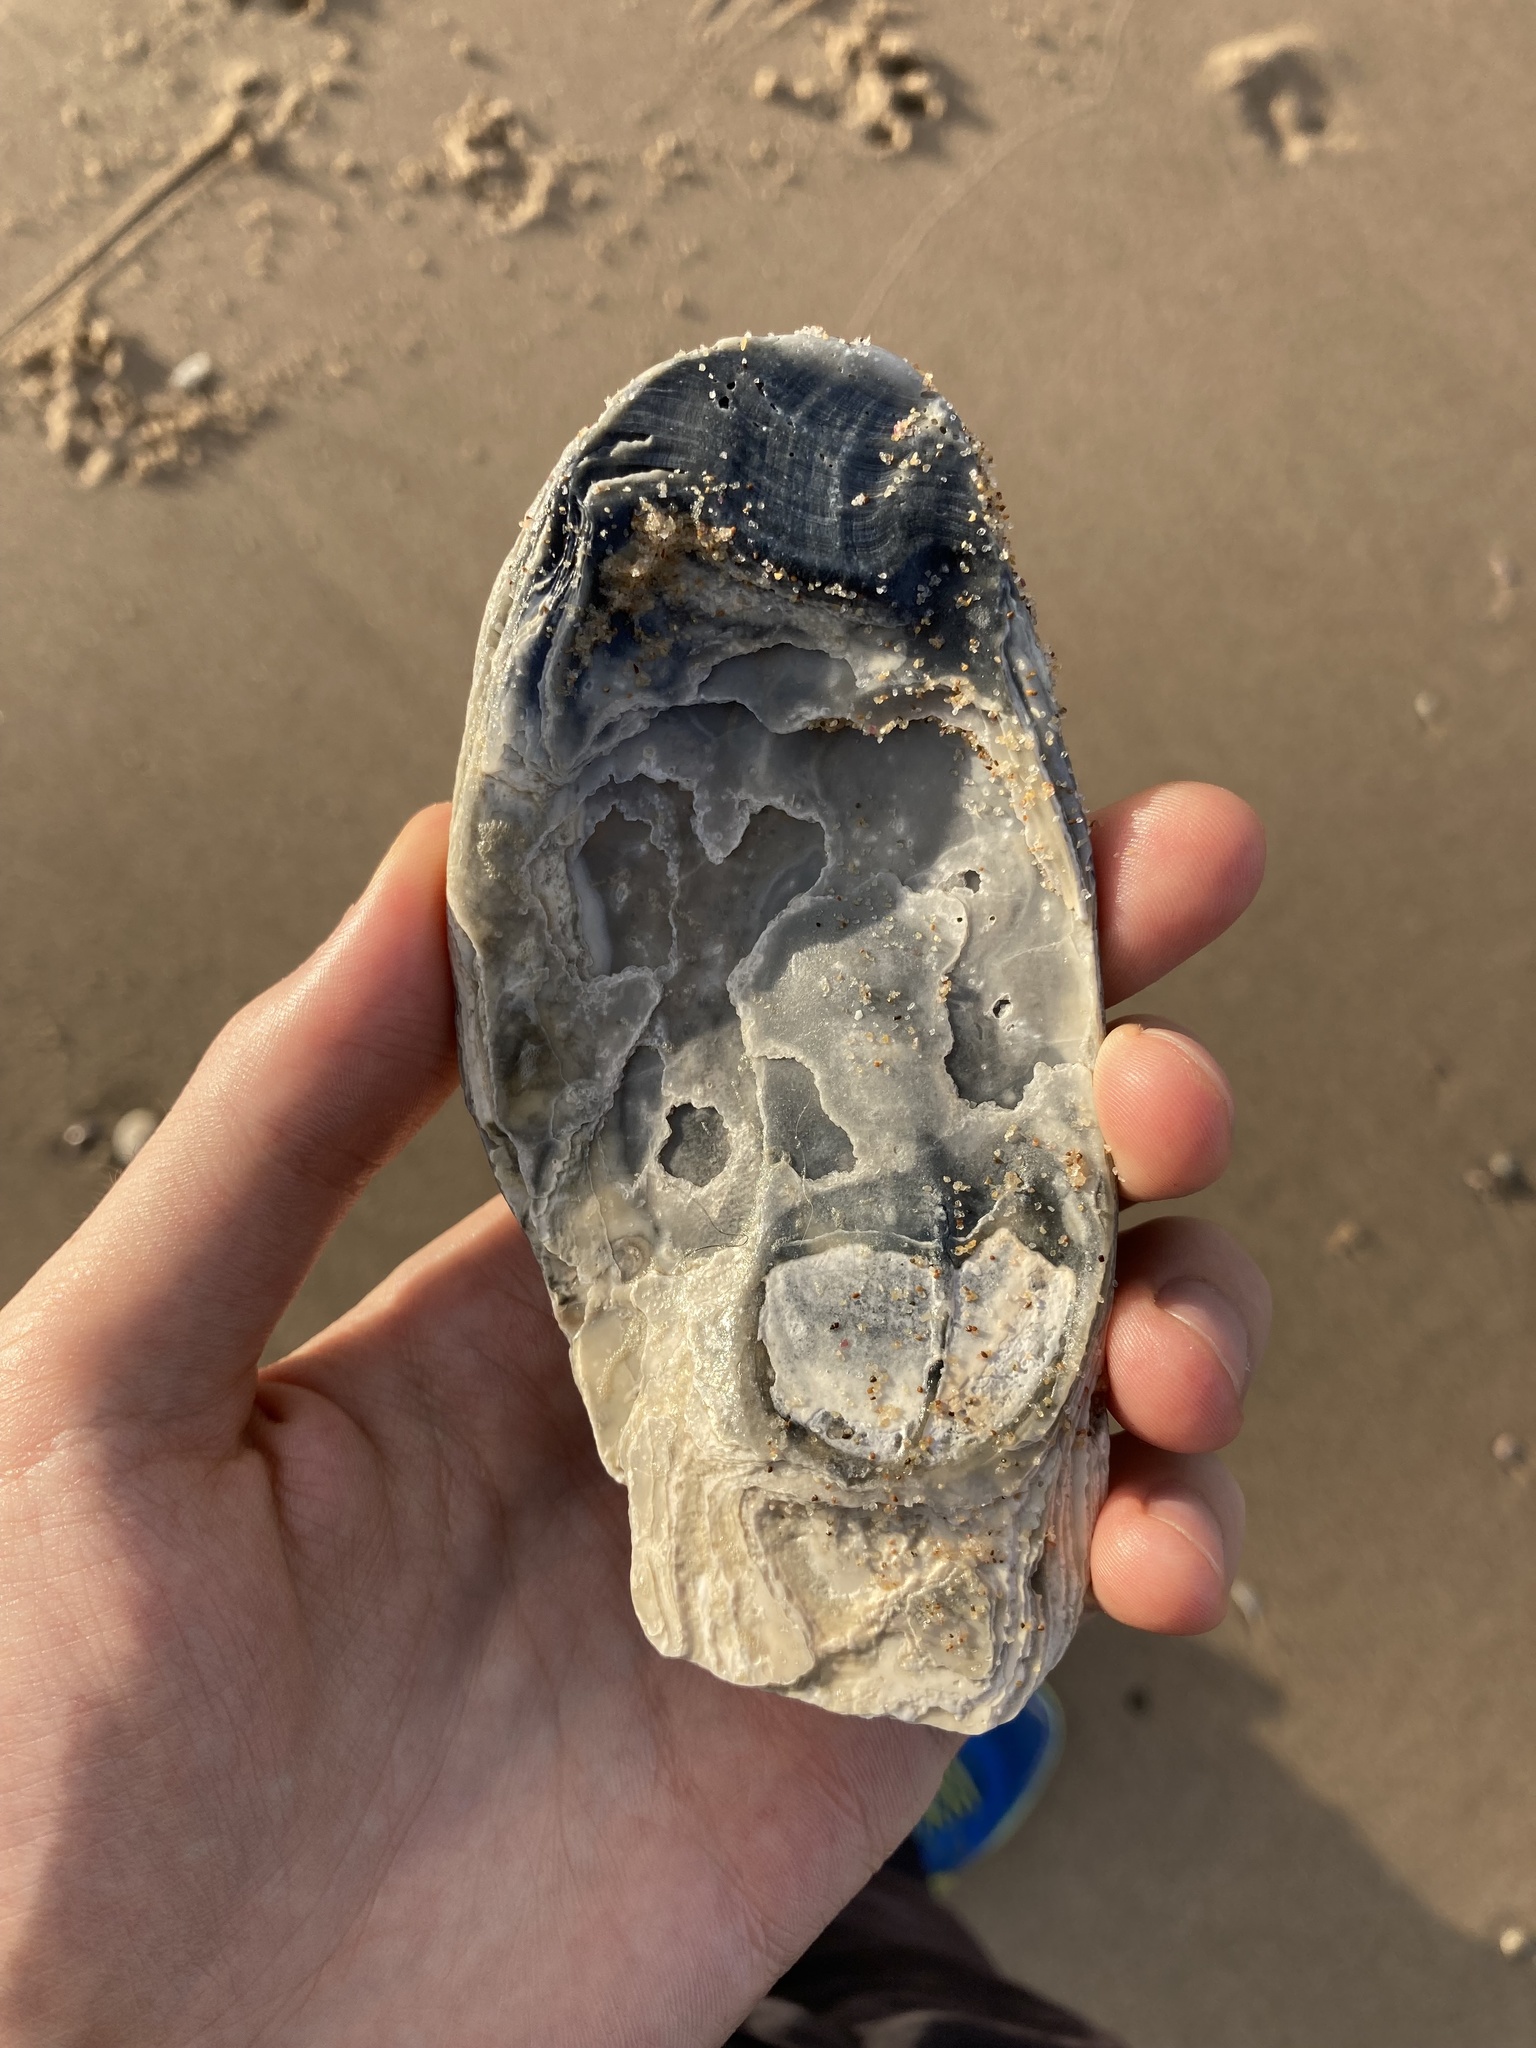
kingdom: Animalia
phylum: Mollusca
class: Bivalvia
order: Ostreida
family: Ostreidae
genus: Ostrea
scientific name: Ostrea angasi
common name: Angasi oyster
